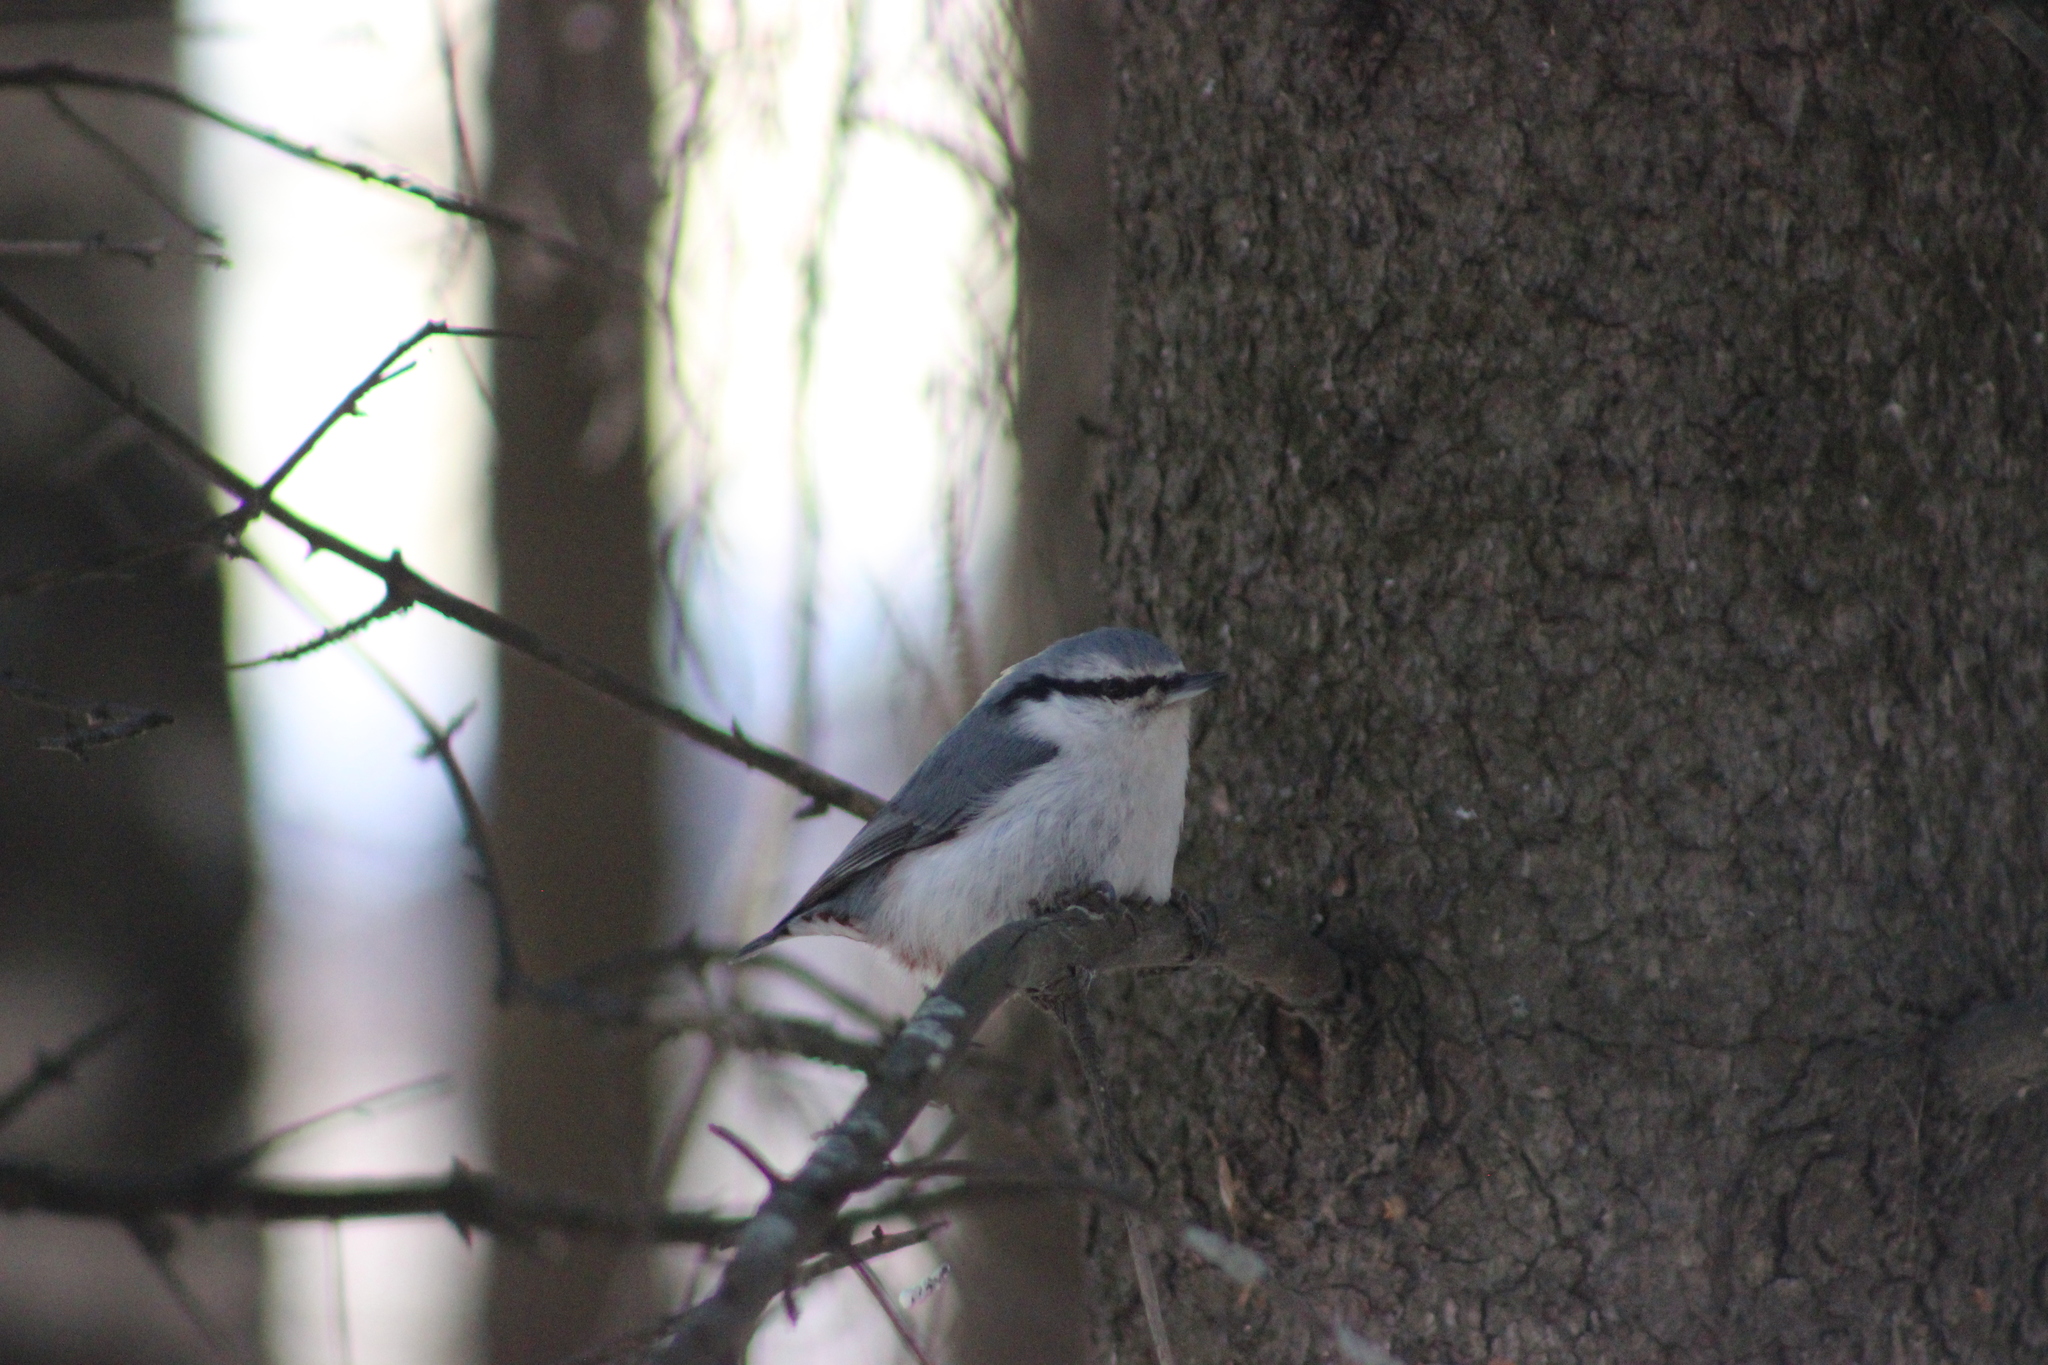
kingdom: Animalia
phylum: Chordata
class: Aves
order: Passeriformes
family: Sittidae
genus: Sitta
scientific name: Sitta europaea
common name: Eurasian nuthatch
